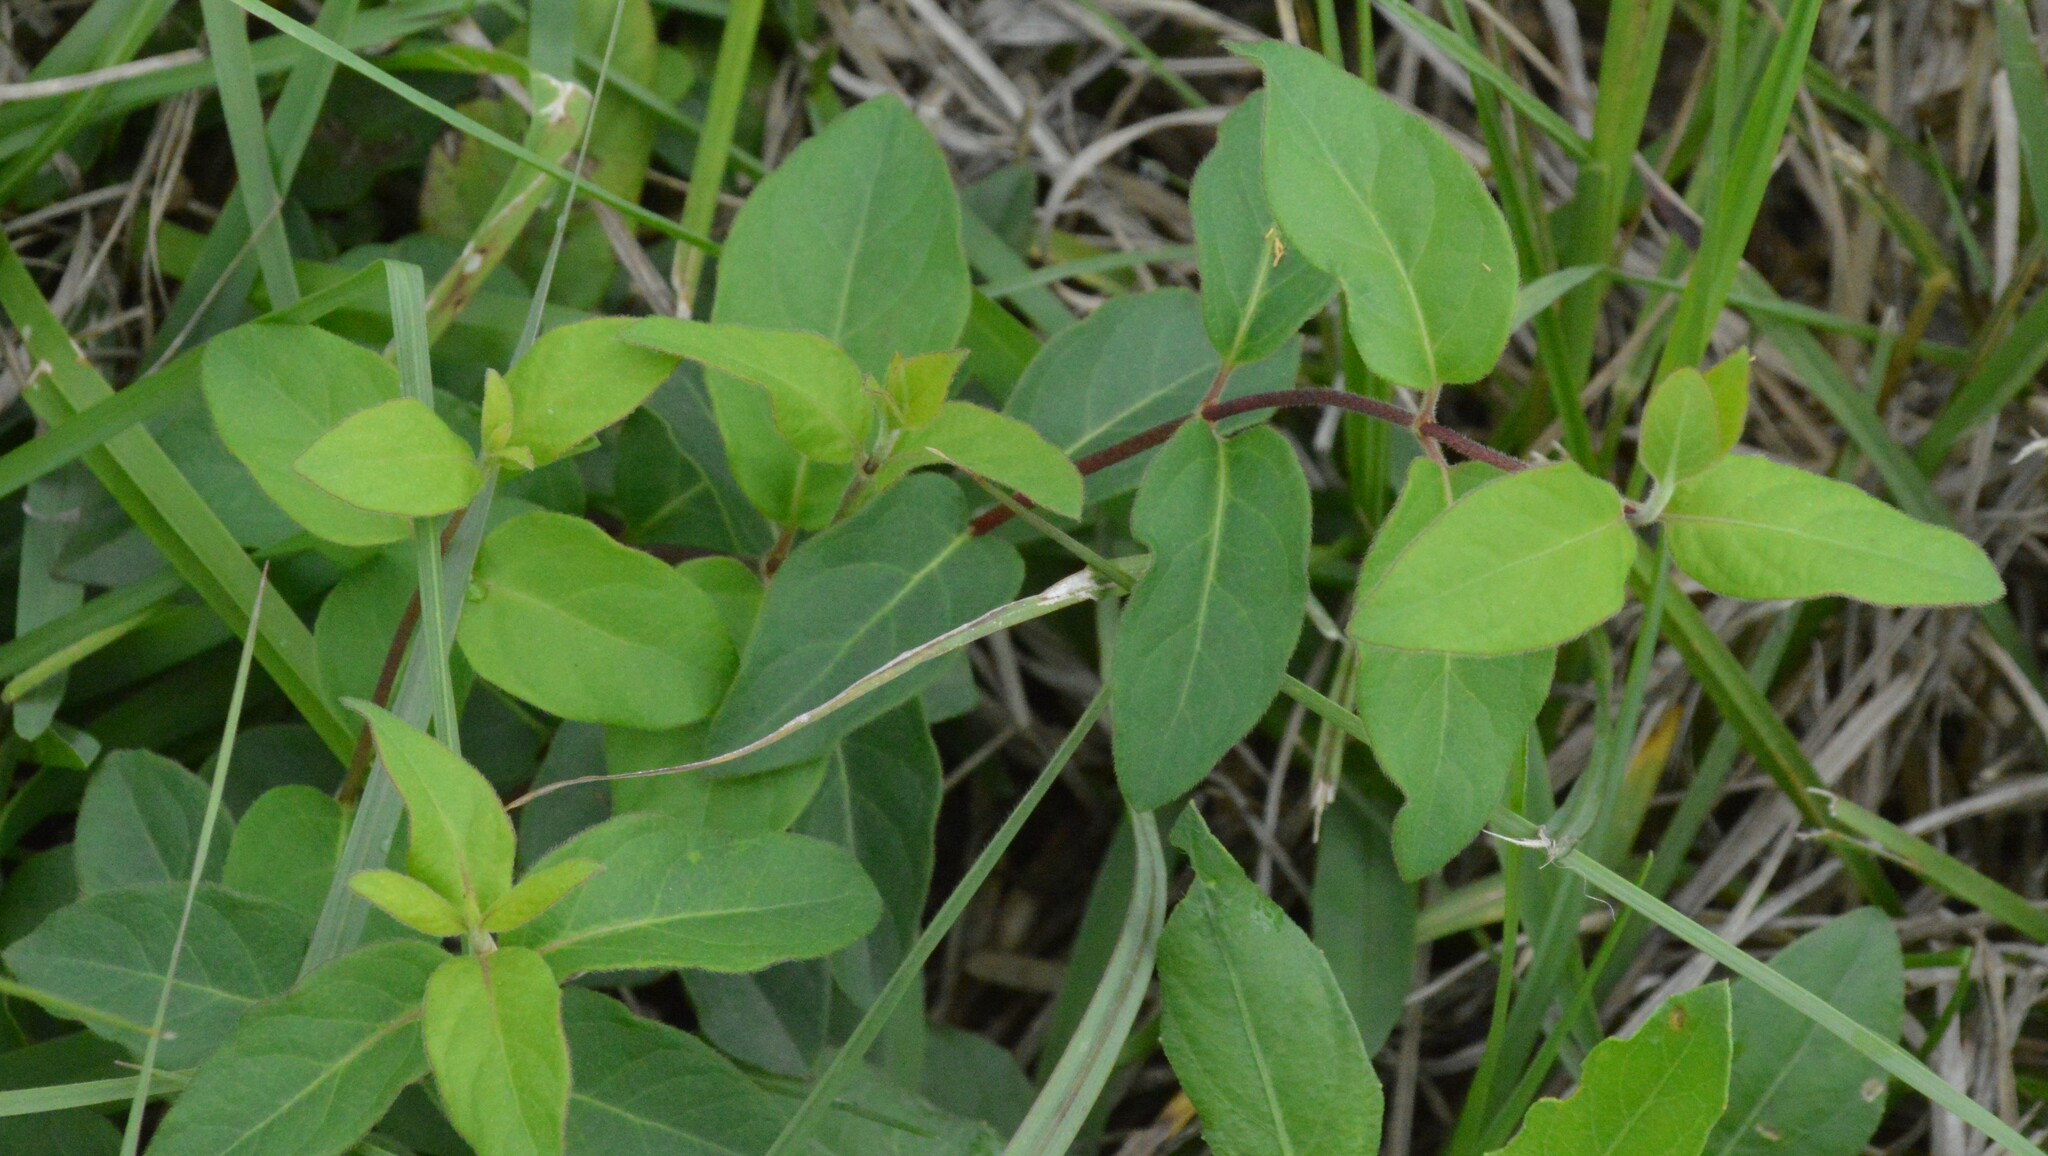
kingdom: Plantae
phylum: Tracheophyta
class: Magnoliopsida
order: Dipsacales
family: Caprifoliaceae
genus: Lonicera
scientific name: Lonicera japonica
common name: Japanese honeysuckle
